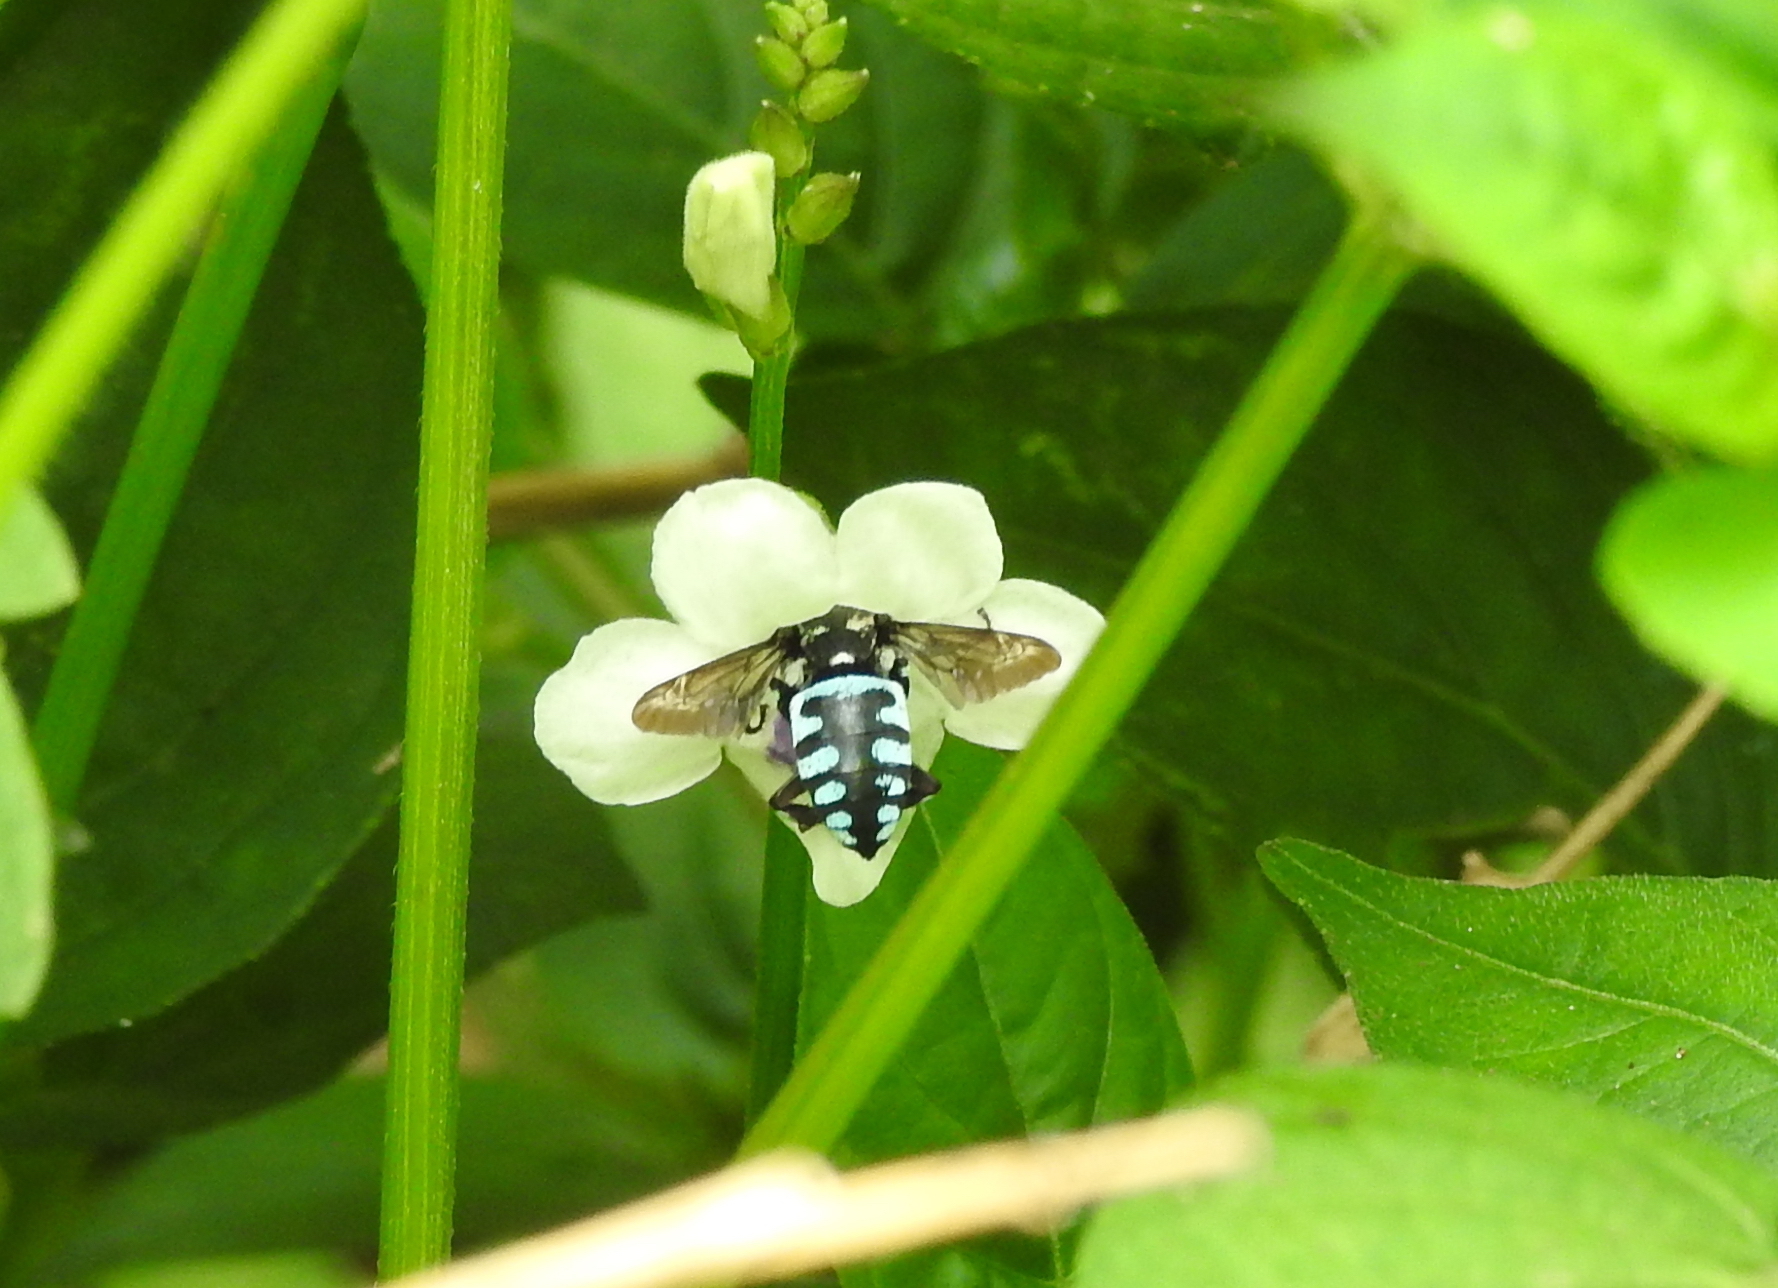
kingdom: Animalia
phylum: Arthropoda
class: Insecta
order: Hymenoptera
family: Apidae
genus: Thyreus
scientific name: Thyreus himalayensis
